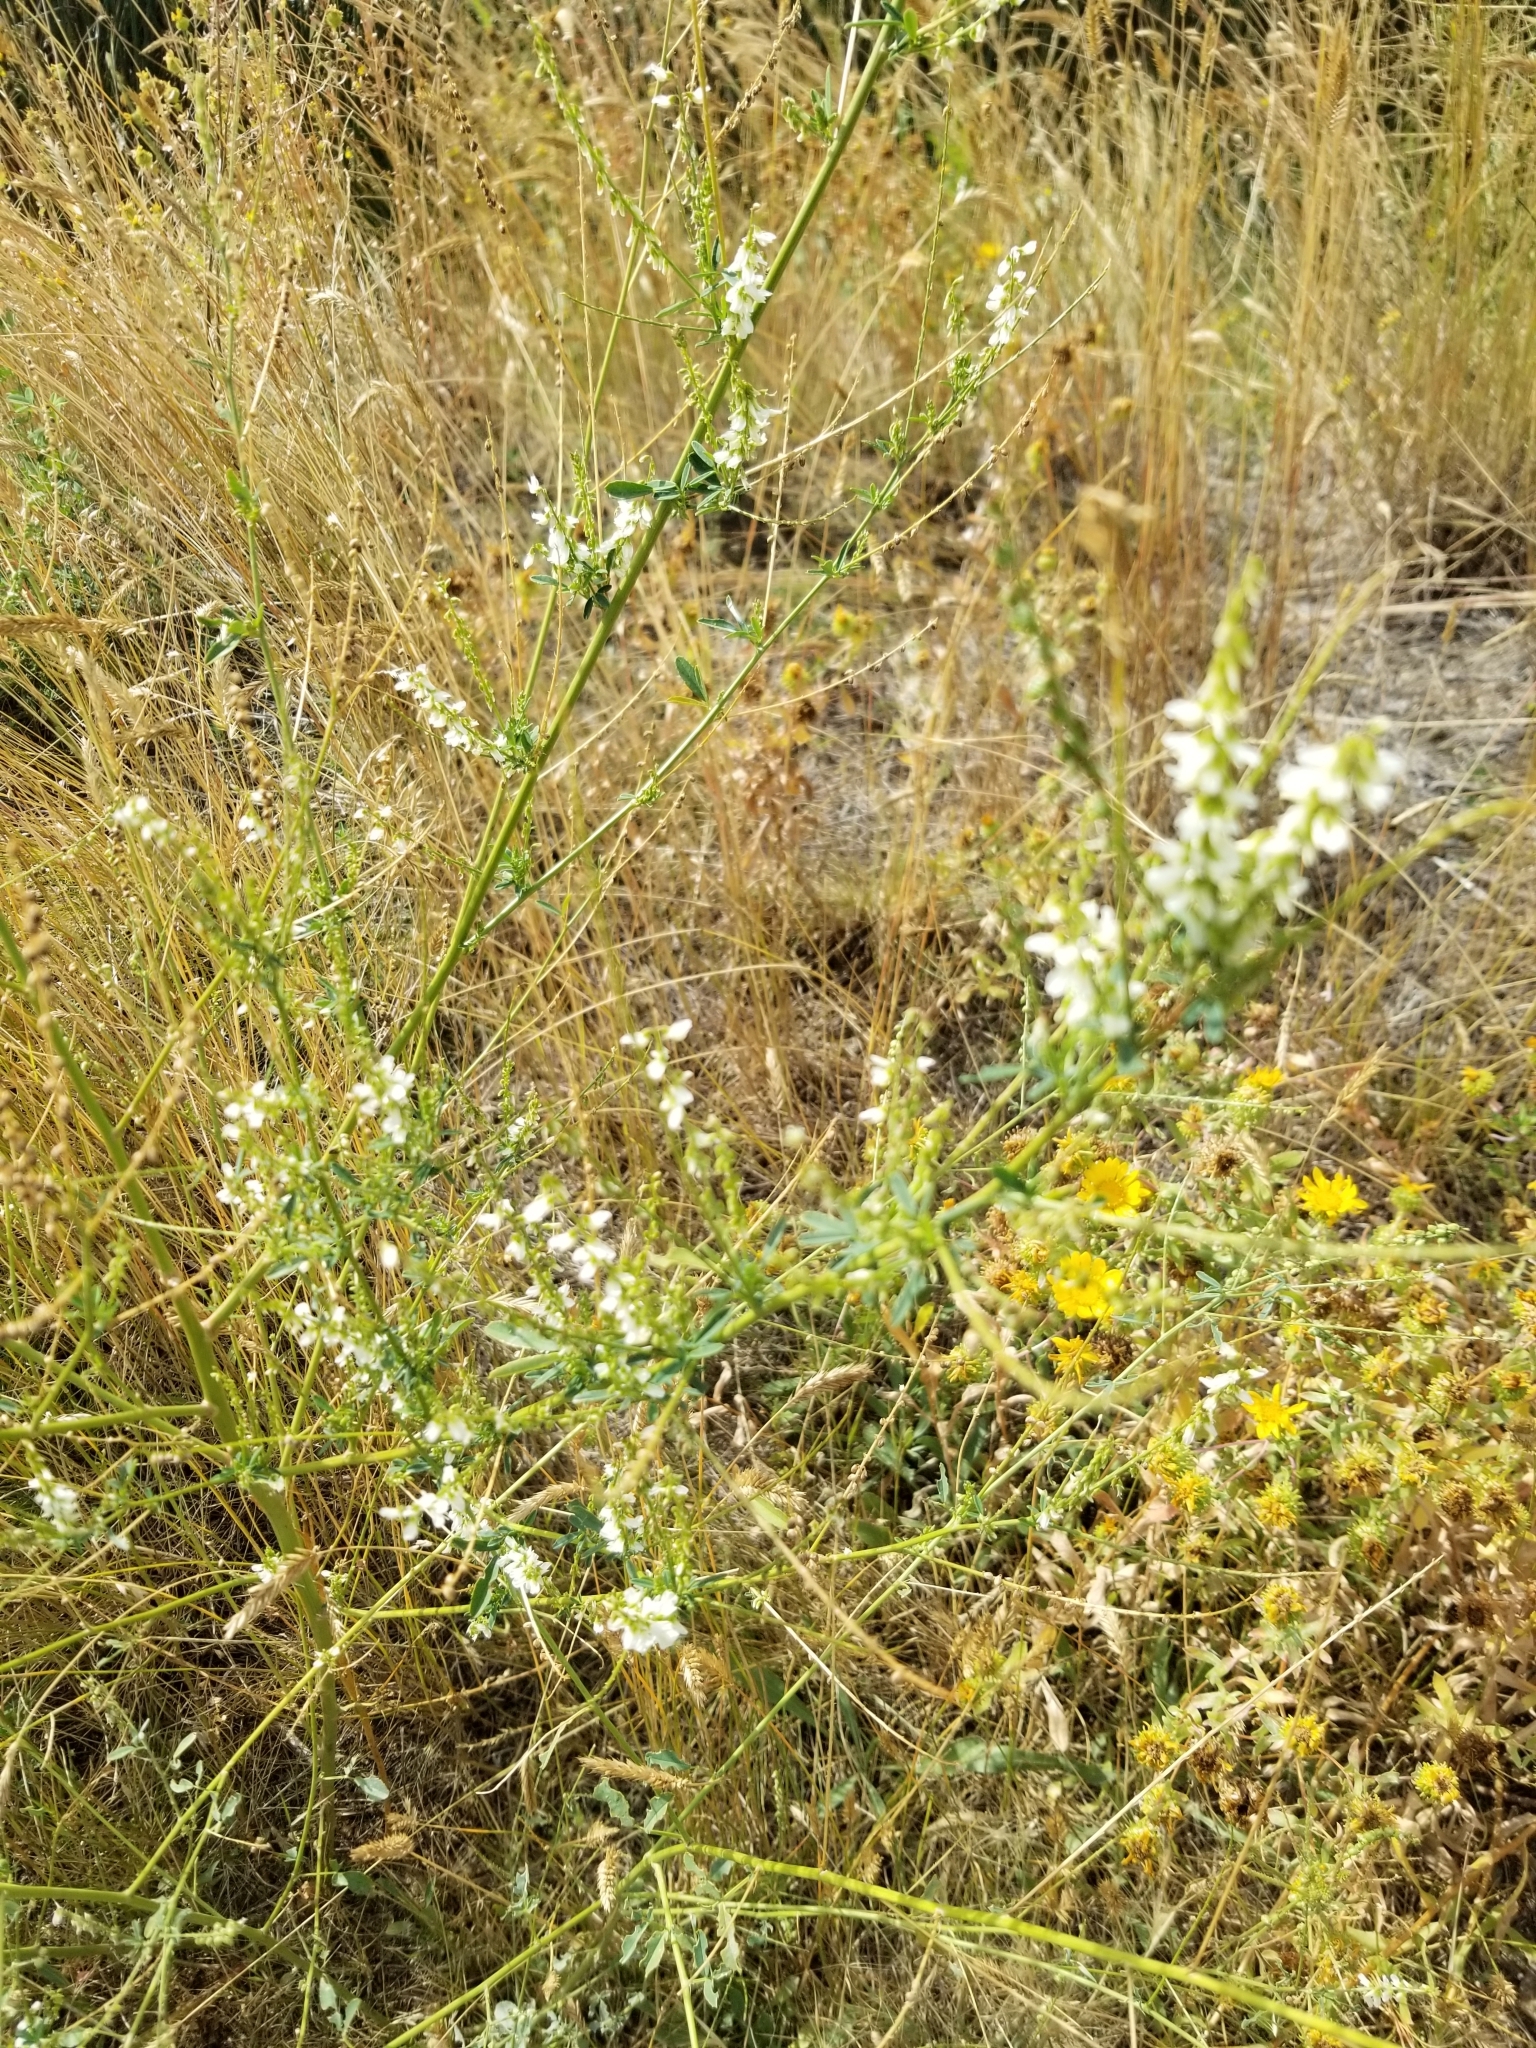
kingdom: Plantae
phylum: Tracheophyta
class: Magnoliopsida
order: Fabales
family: Fabaceae
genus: Melilotus
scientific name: Melilotus albus
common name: White melilot
